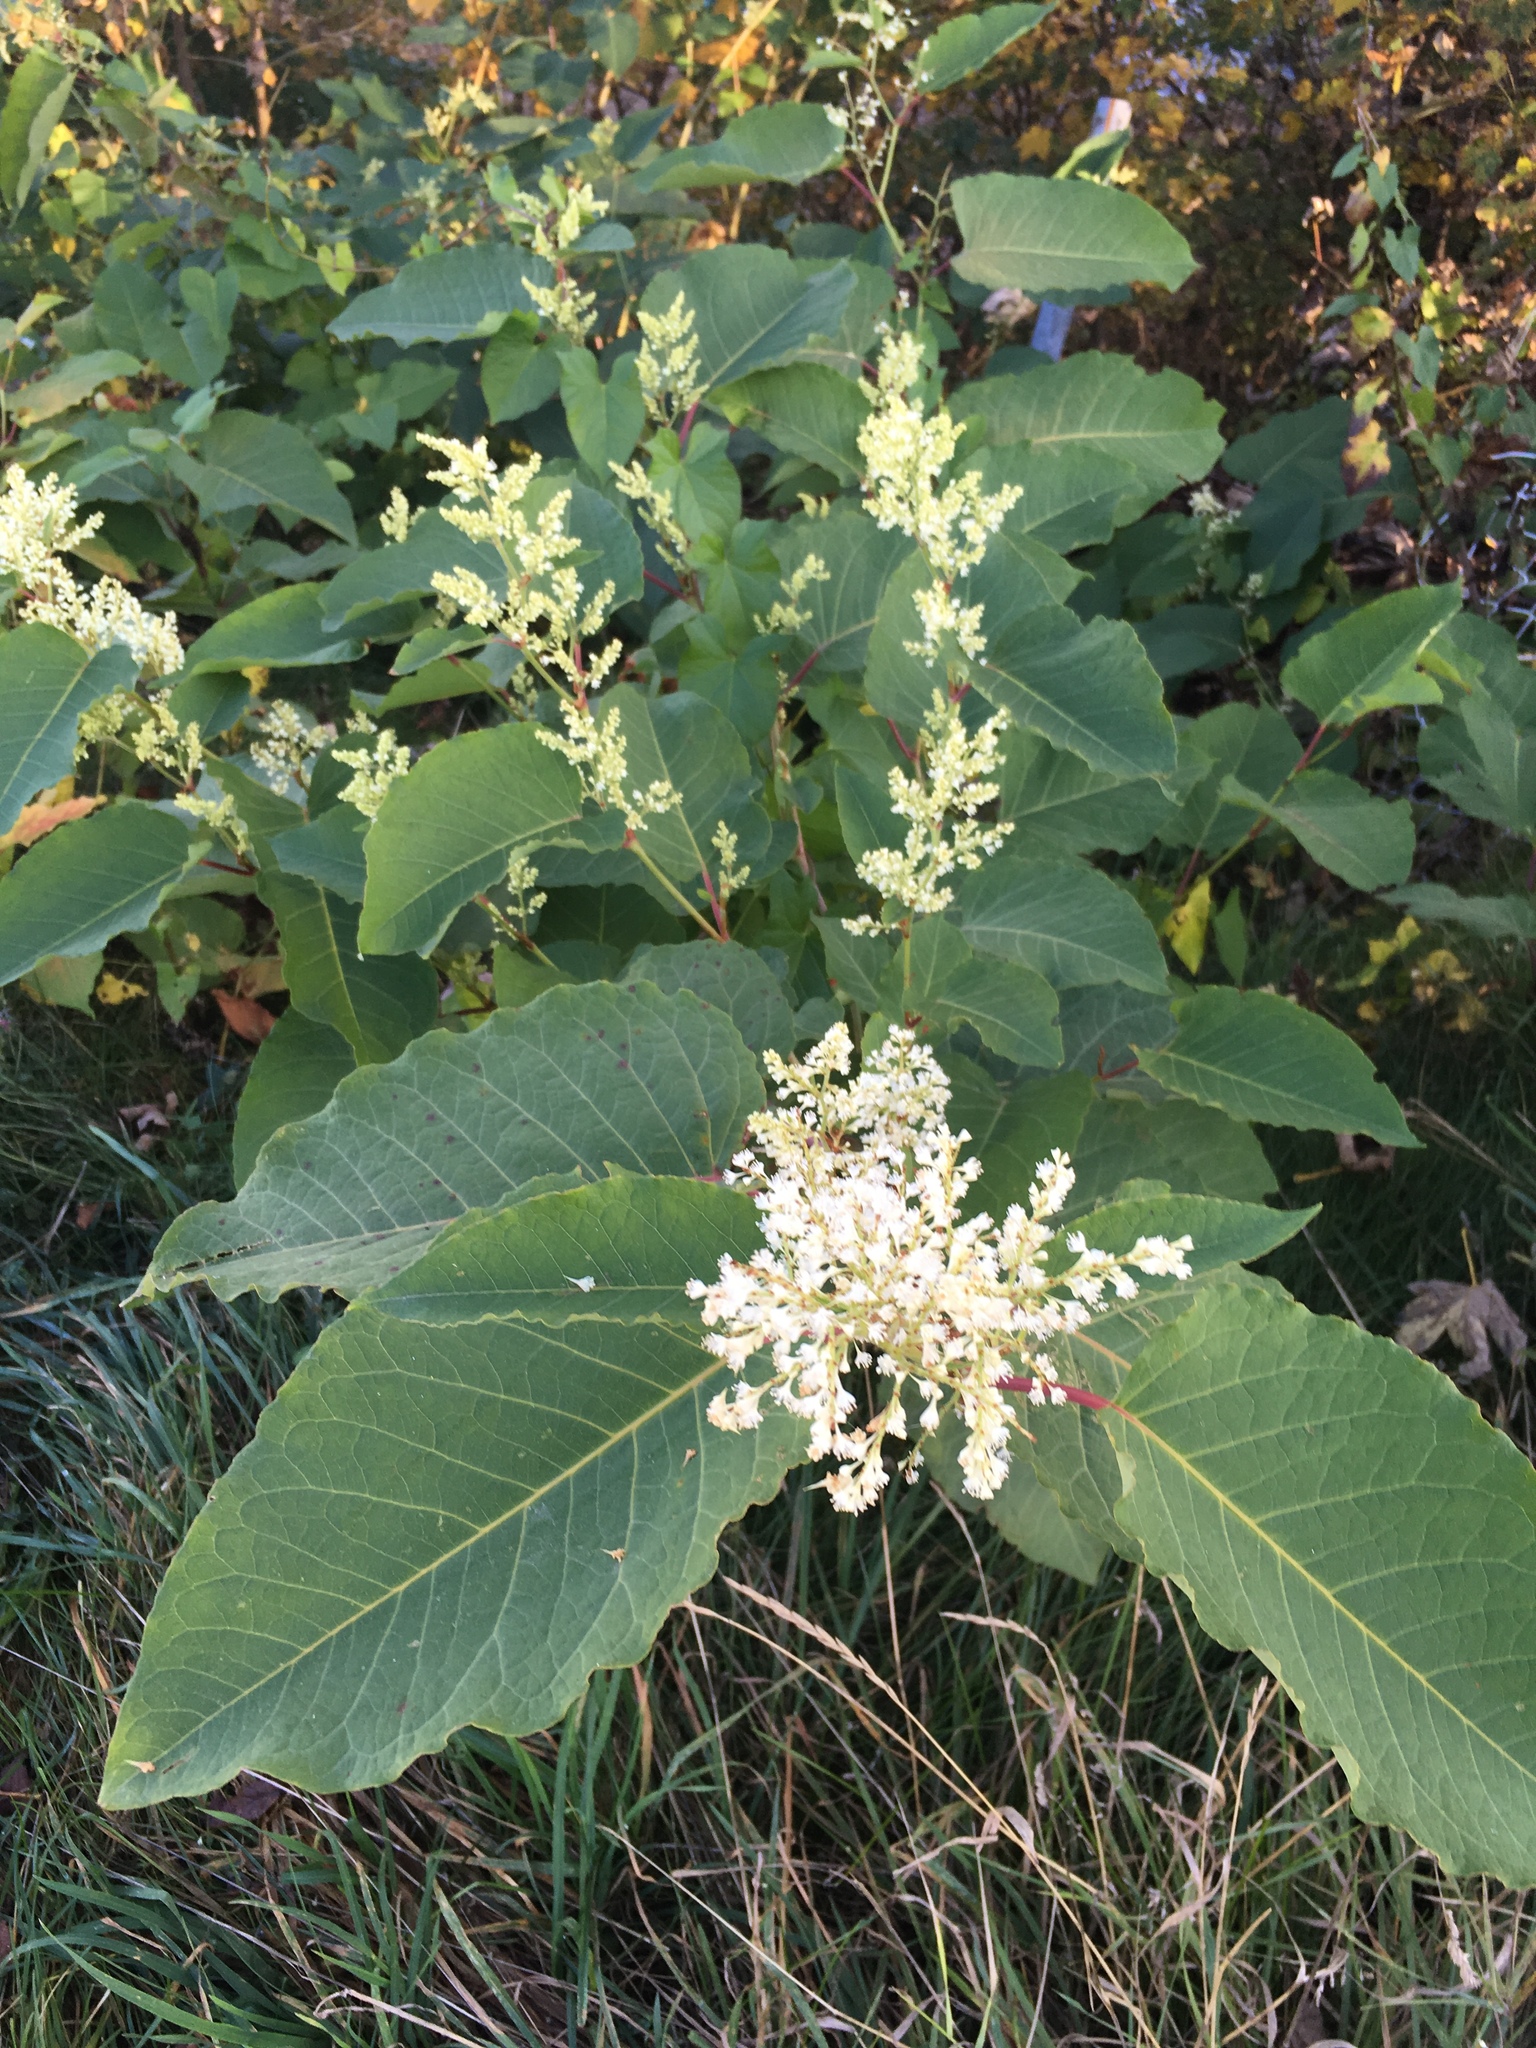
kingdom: Plantae
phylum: Tracheophyta
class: Magnoliopsida
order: Caryophyllales
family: Polygonaceae
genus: Reynoutria
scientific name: Reynoutria bohemica
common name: Bohemian knotweed
